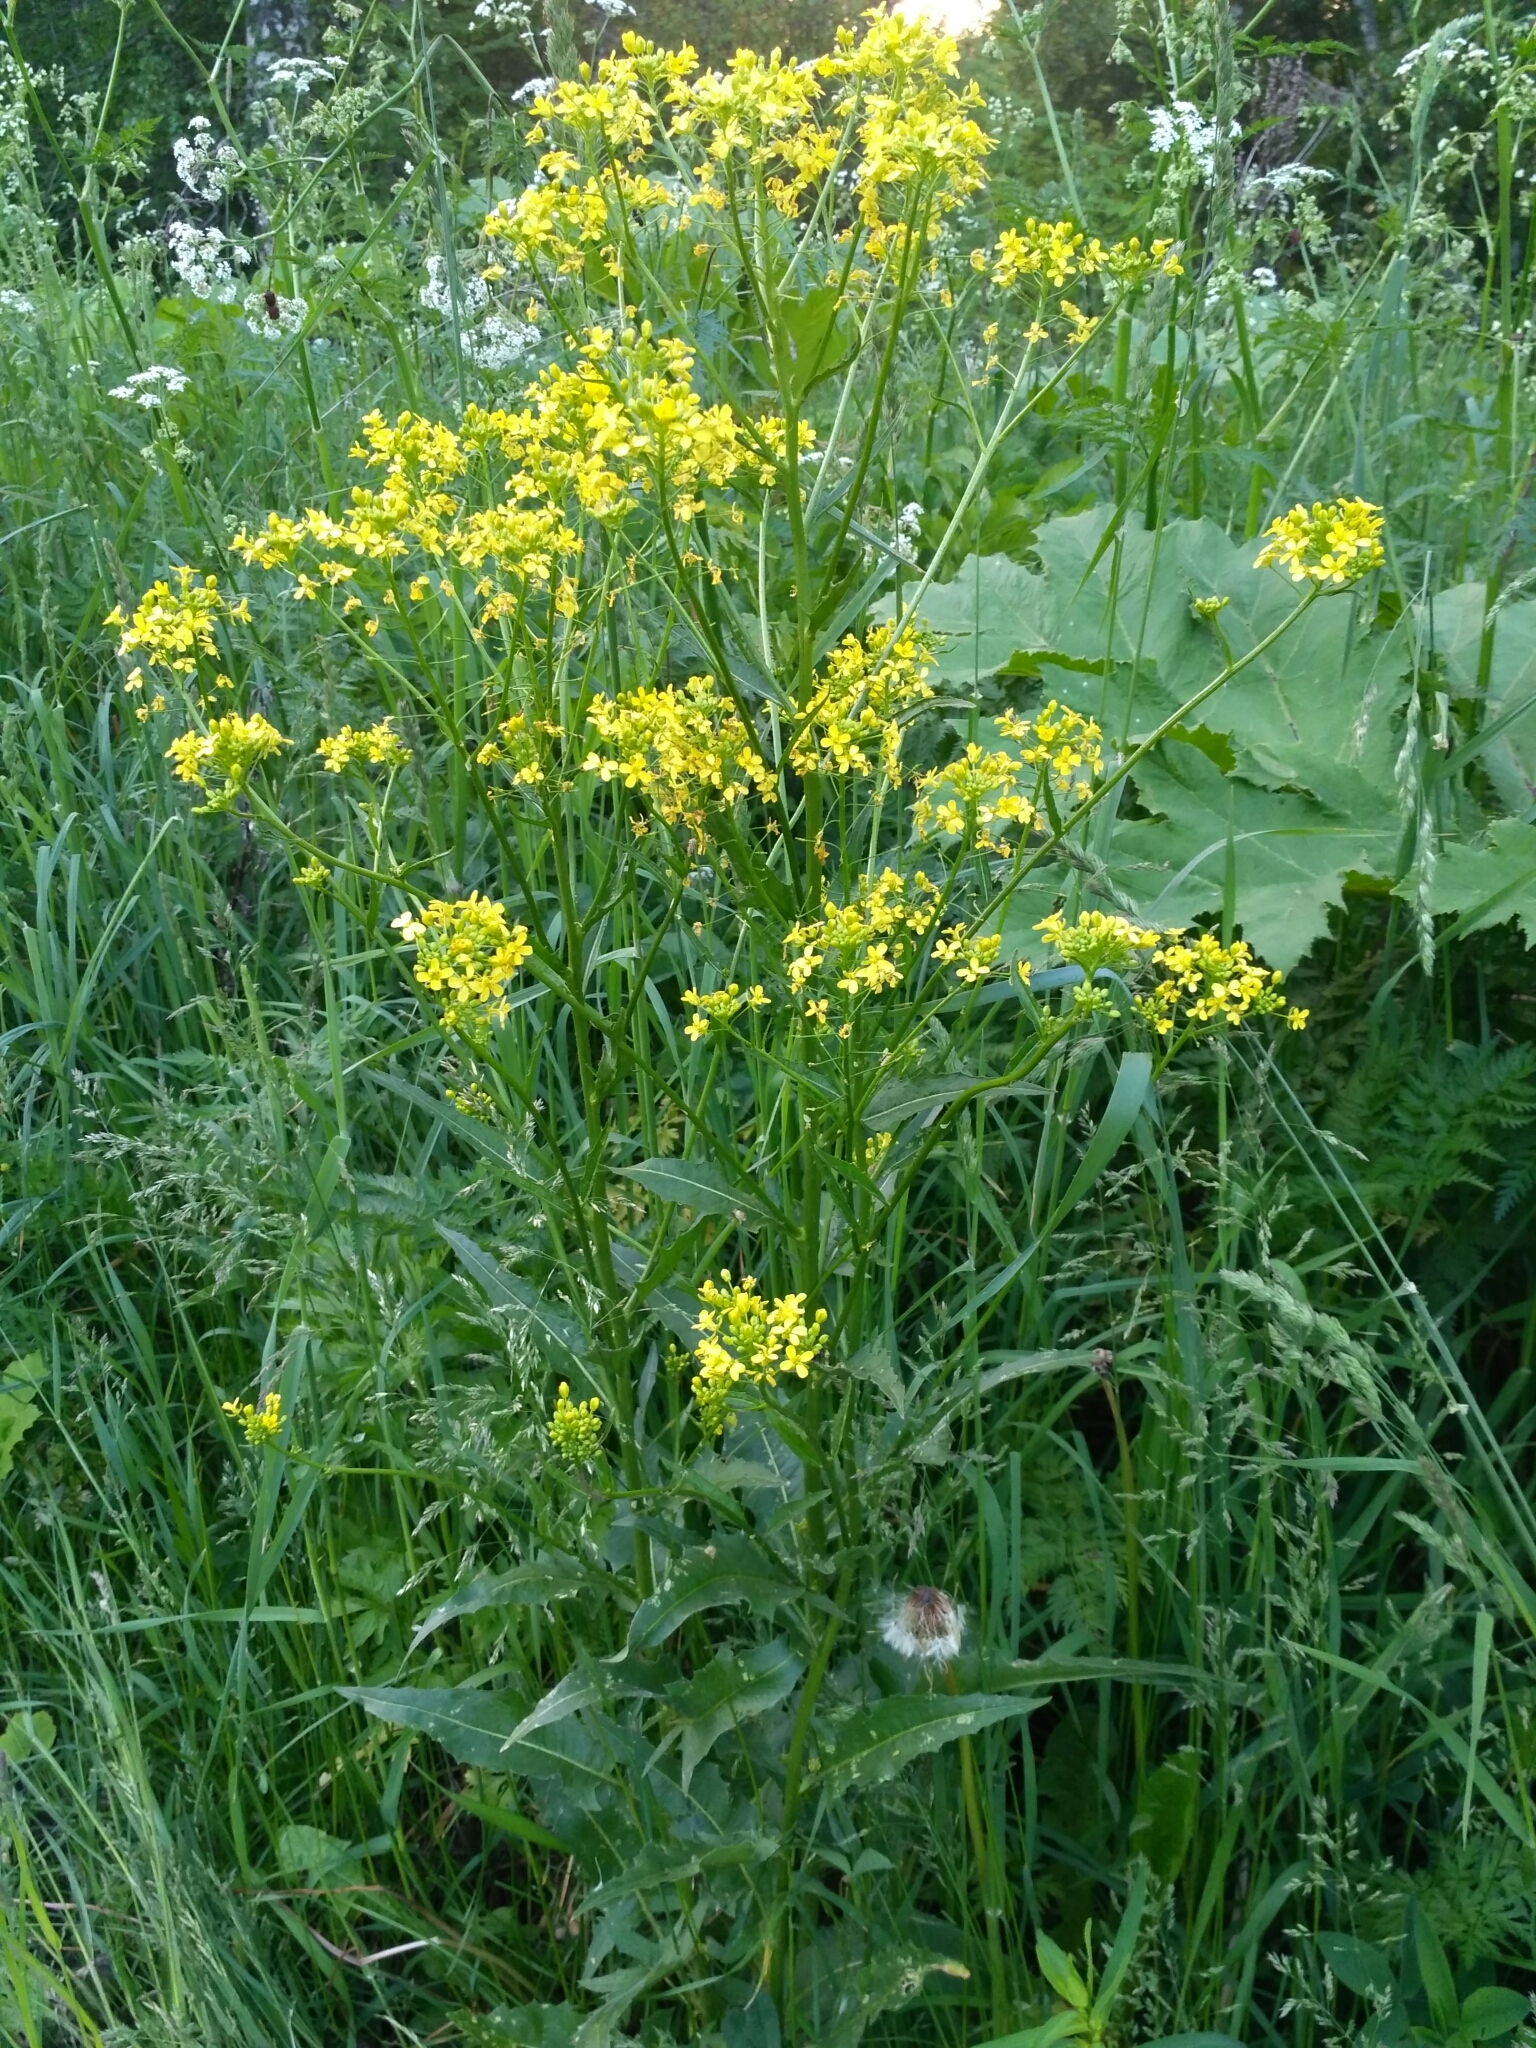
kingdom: Plantae
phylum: Tracheophyta
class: Magnoliopsida
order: Brassicales
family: Brassicaceae
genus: Bunias
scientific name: Bunias orientalis
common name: Warty-cabbage
